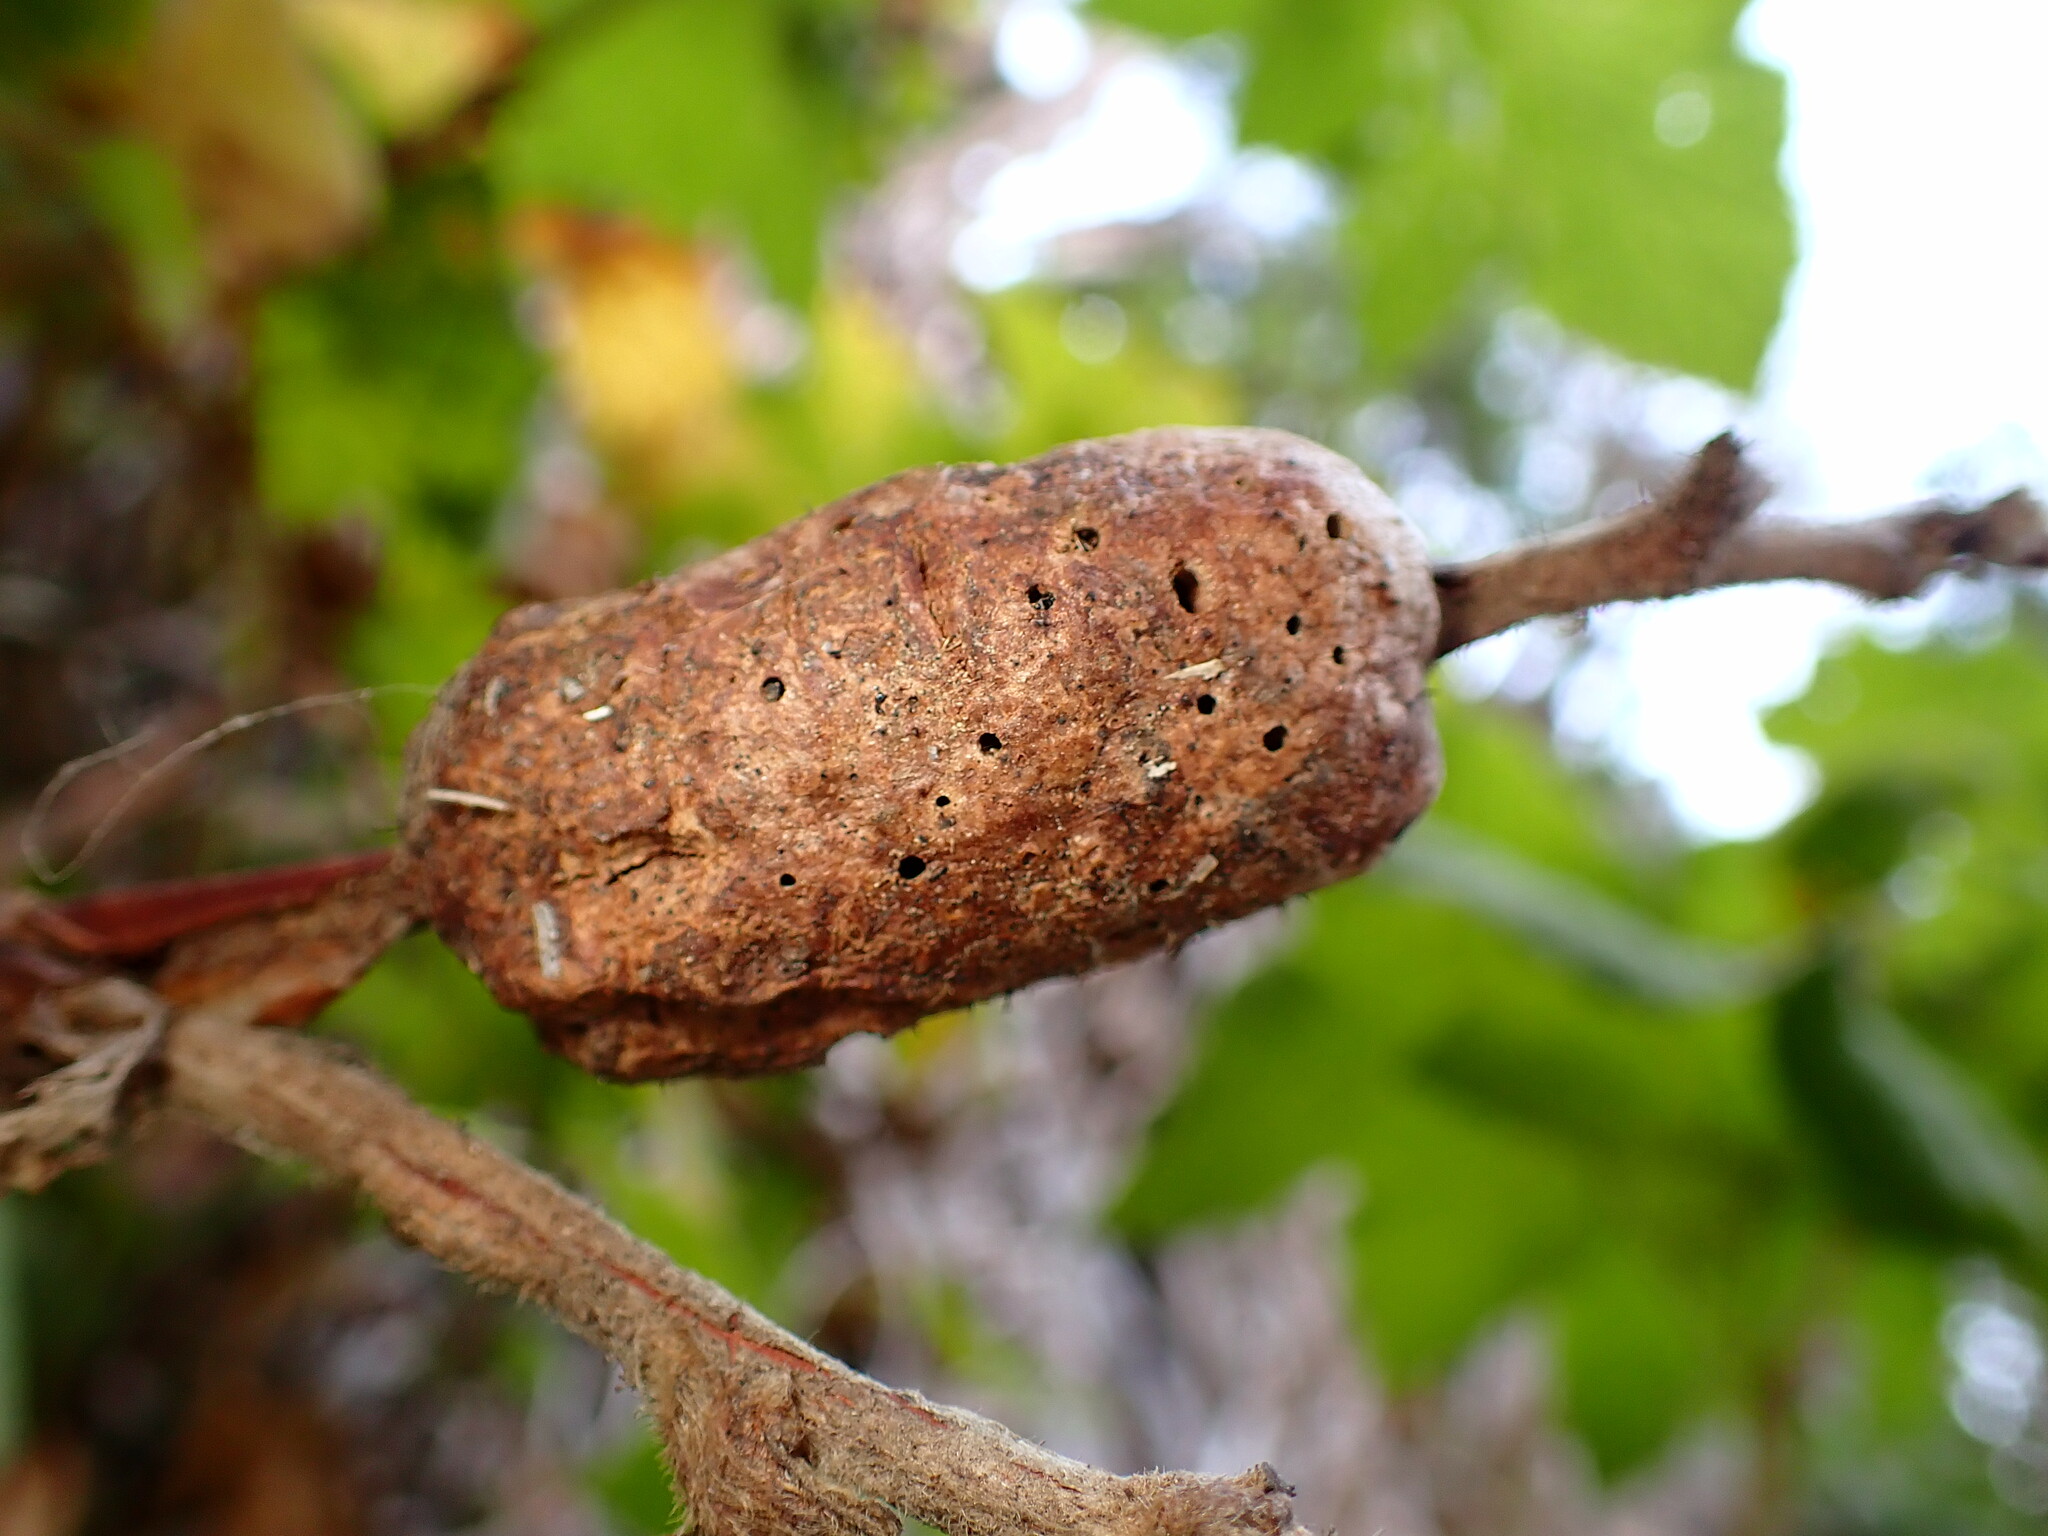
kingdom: Animalia
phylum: Arthropoda
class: Insecta
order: Hymenoptera
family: Cynipidae
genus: Diastrophus
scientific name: Diastrophus
